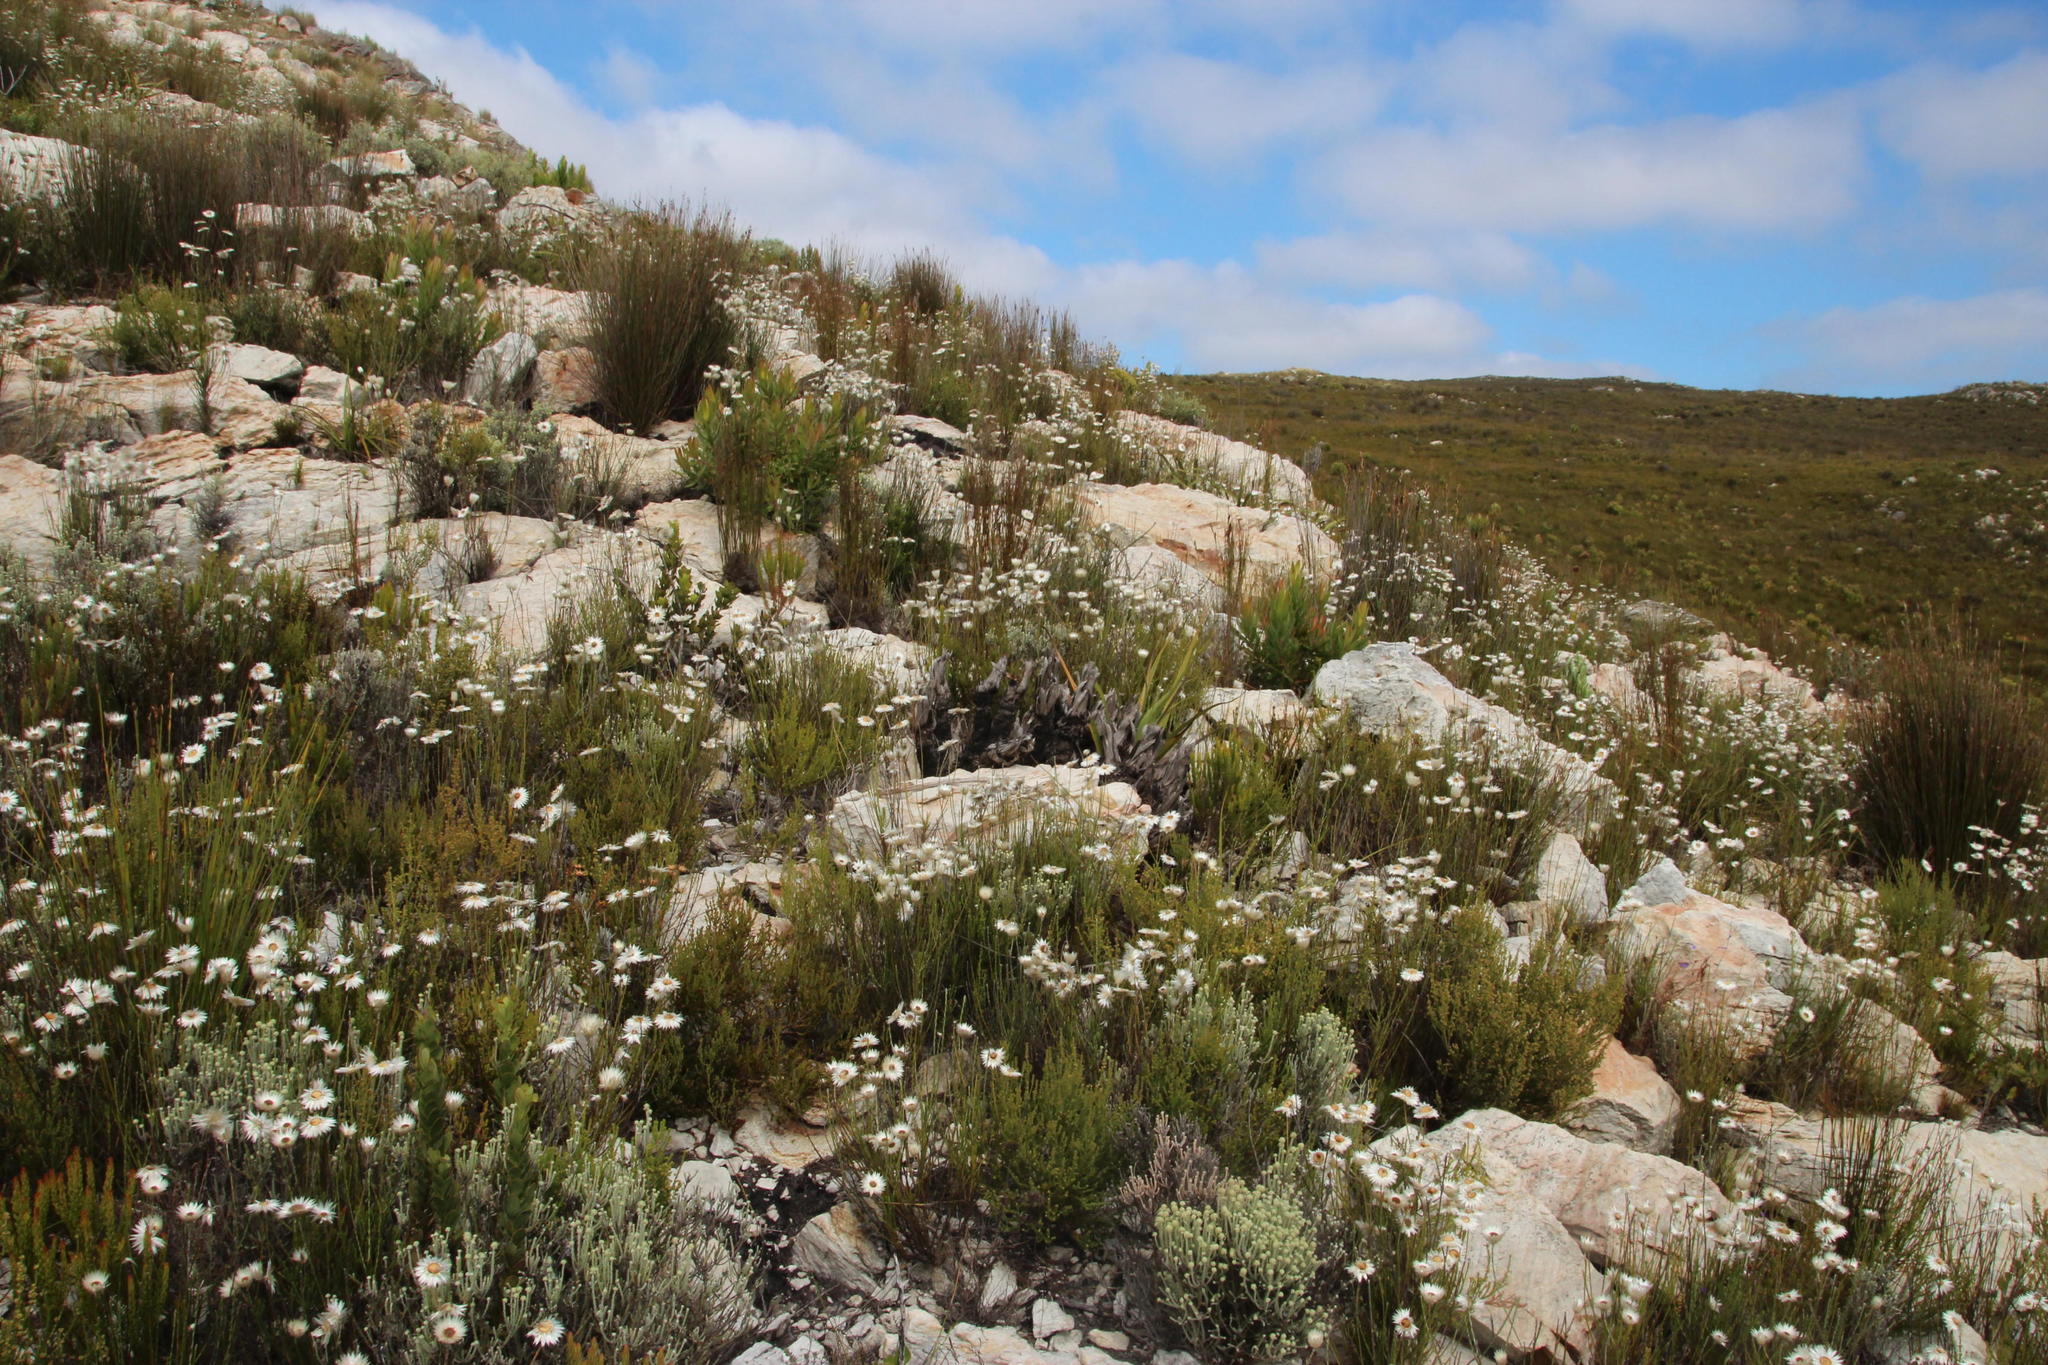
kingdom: Plantae
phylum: Tracheophyta
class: Magnoliopsida
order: Asterales
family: Asteraceae
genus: Edmondia
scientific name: Edmondia sesamoides
